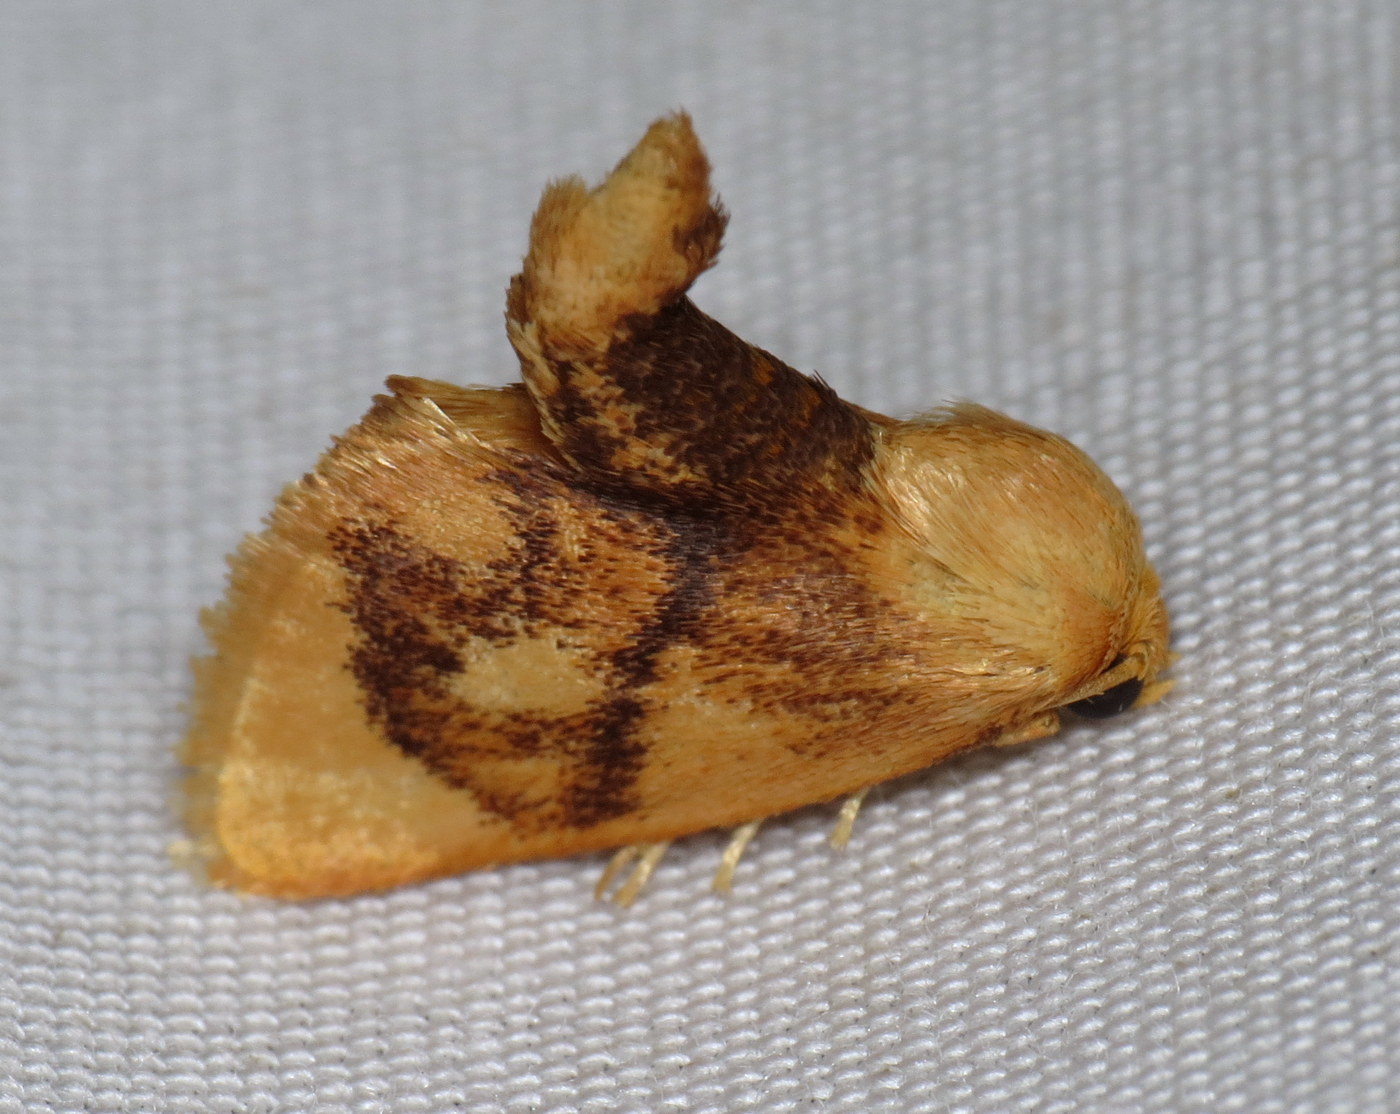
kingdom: Animalia
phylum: Arthropoda
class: Insecta
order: Lepidoptera
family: Limacodidae
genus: Tortricidia
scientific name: Tortricidia flexuosa
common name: Abbreviated button slug moth
